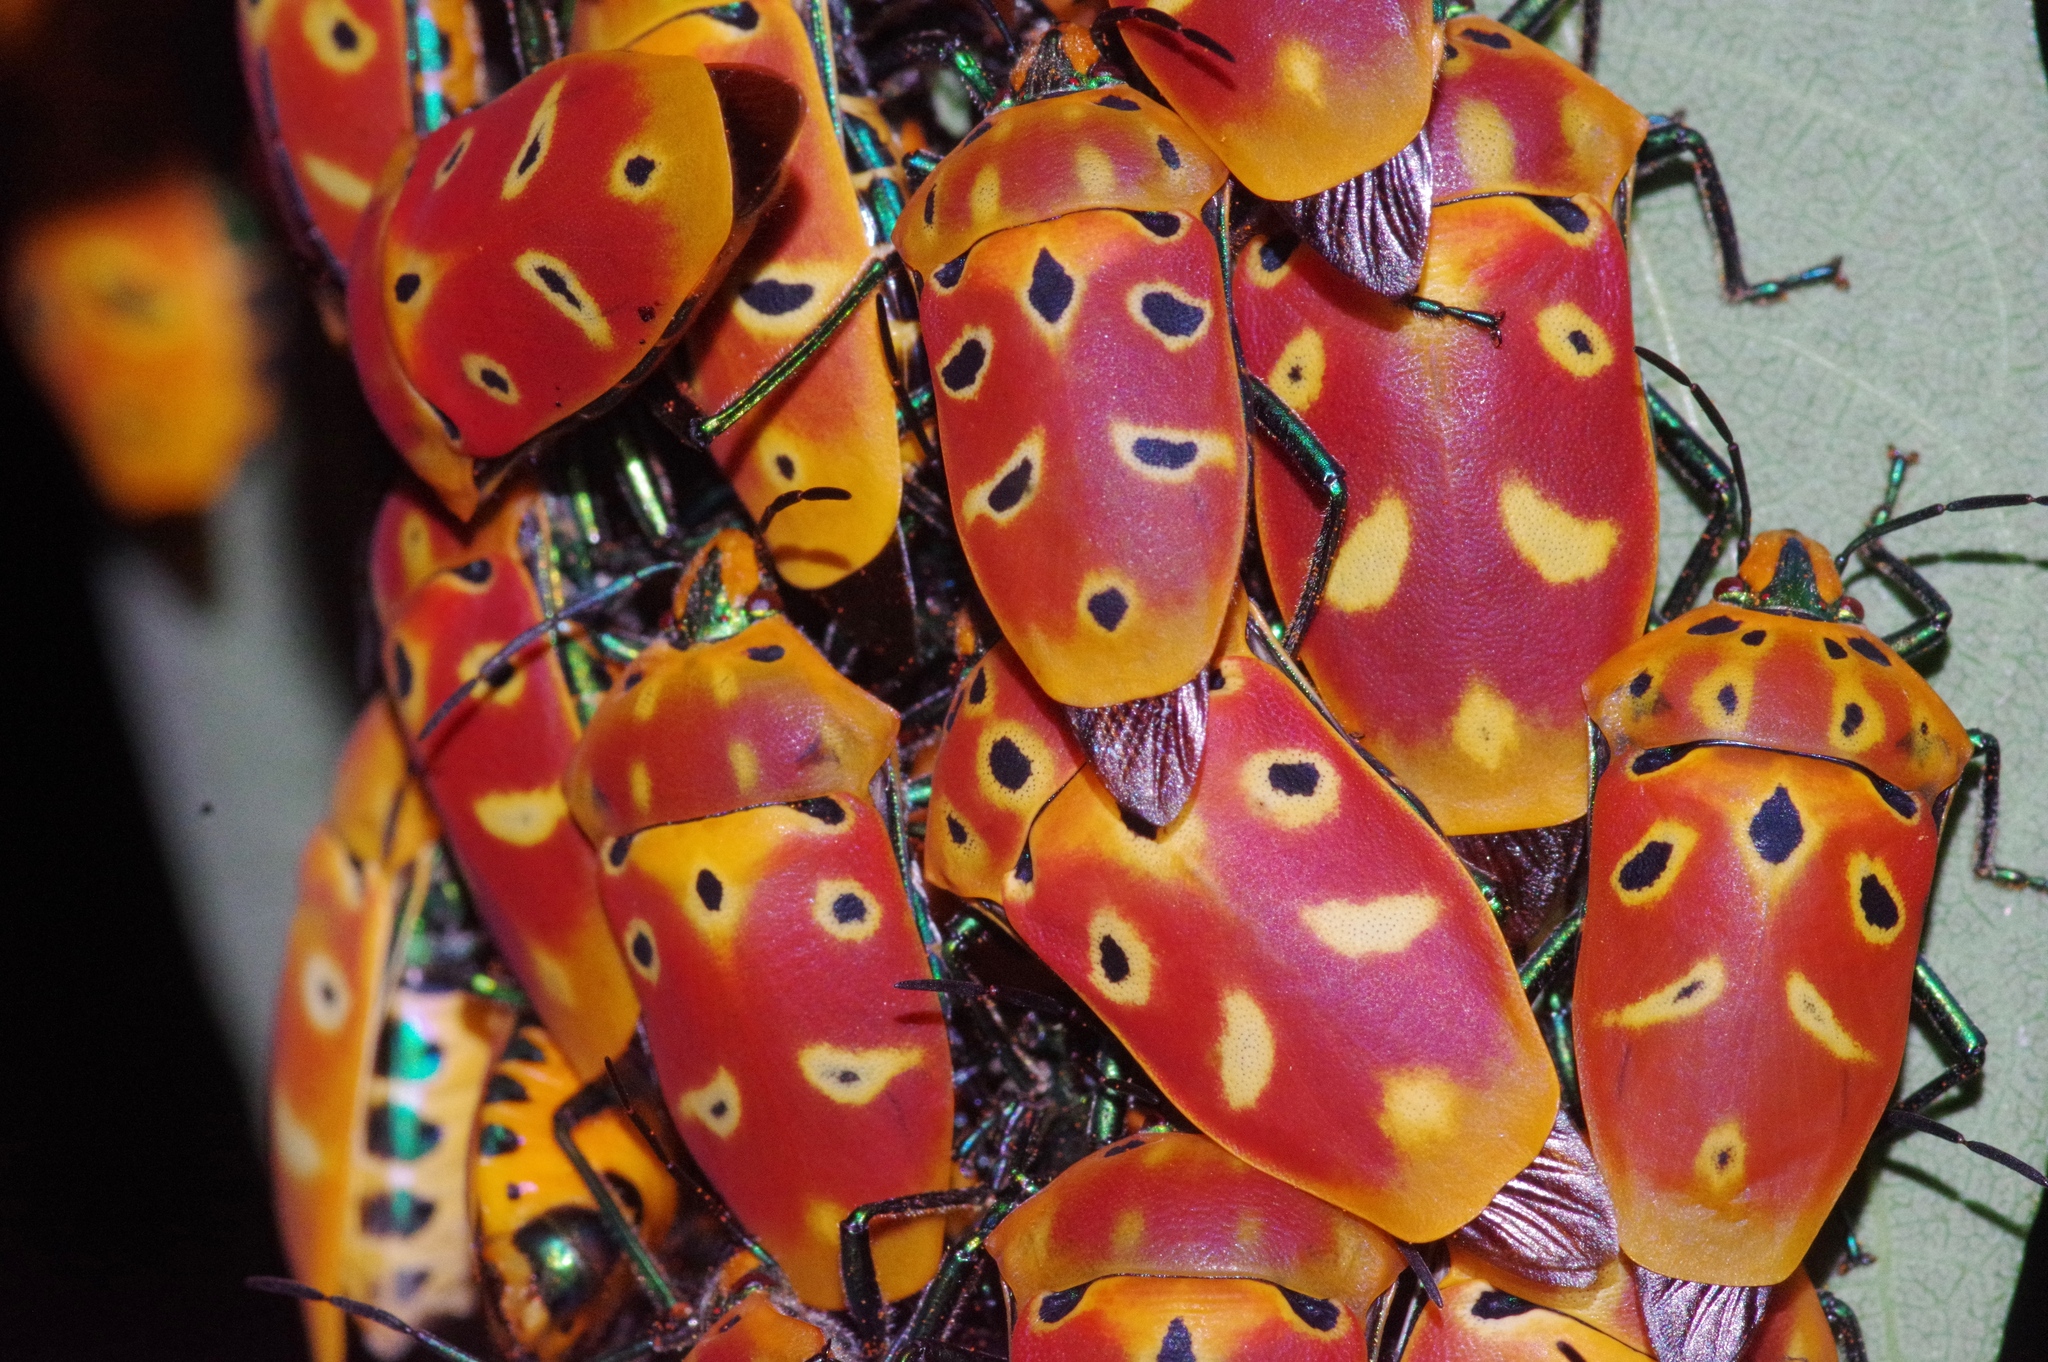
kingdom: Animalia
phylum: Arthropoda
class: Insecta
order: Hemiptera
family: Scutelleridae
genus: Cantao
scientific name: Cantao ocellatus
